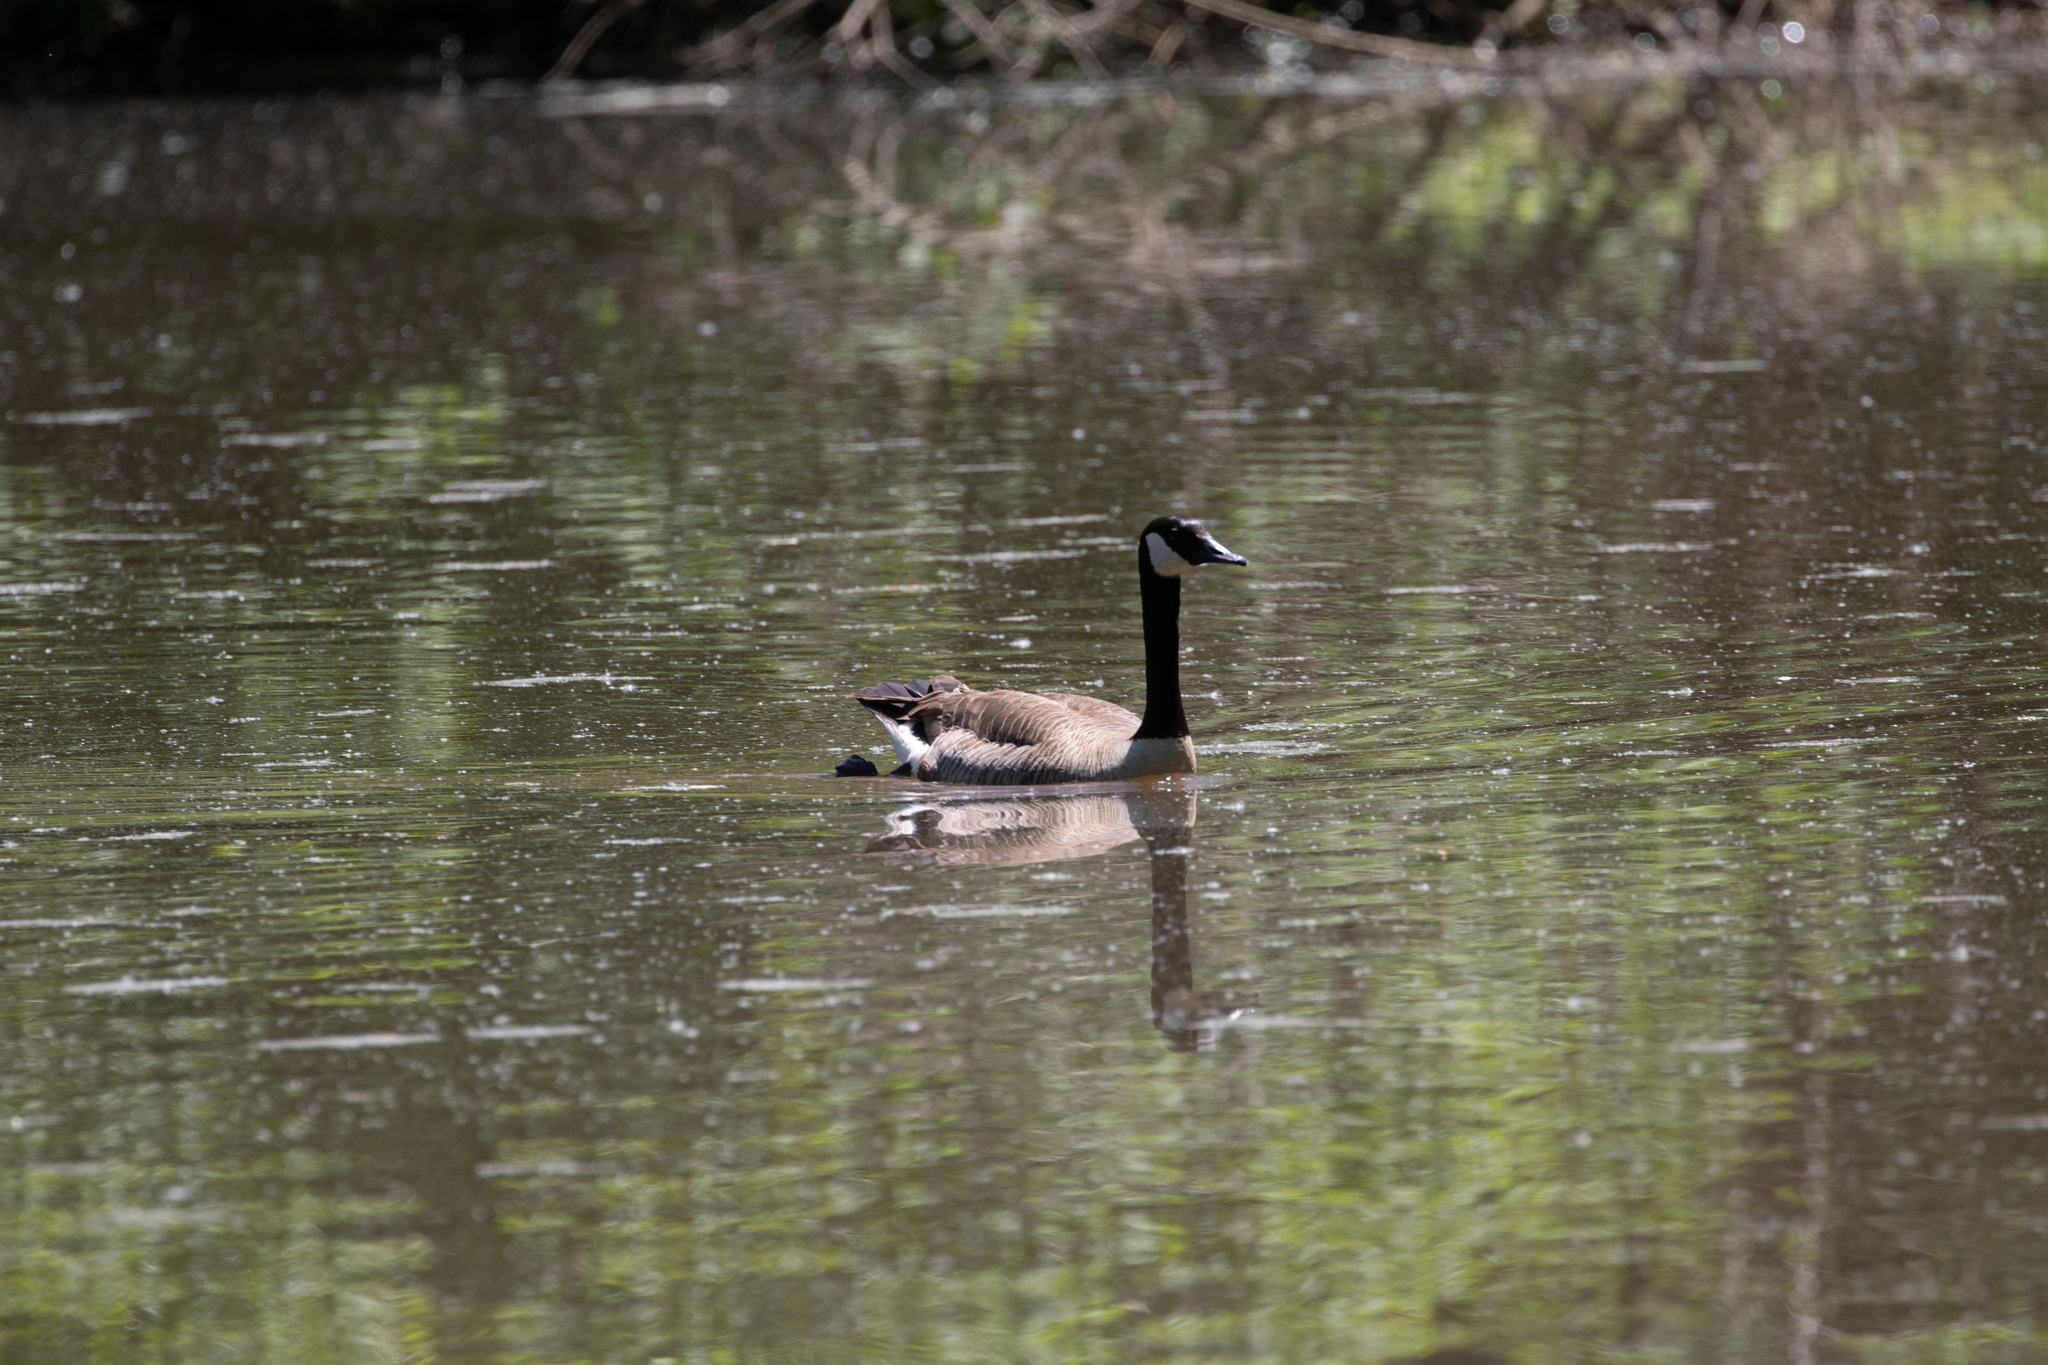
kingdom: Animalia
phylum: Chordata
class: Aves
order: Anseriformes
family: Anatidae
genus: Branta
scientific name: Branta canadensis
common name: Canada goose
